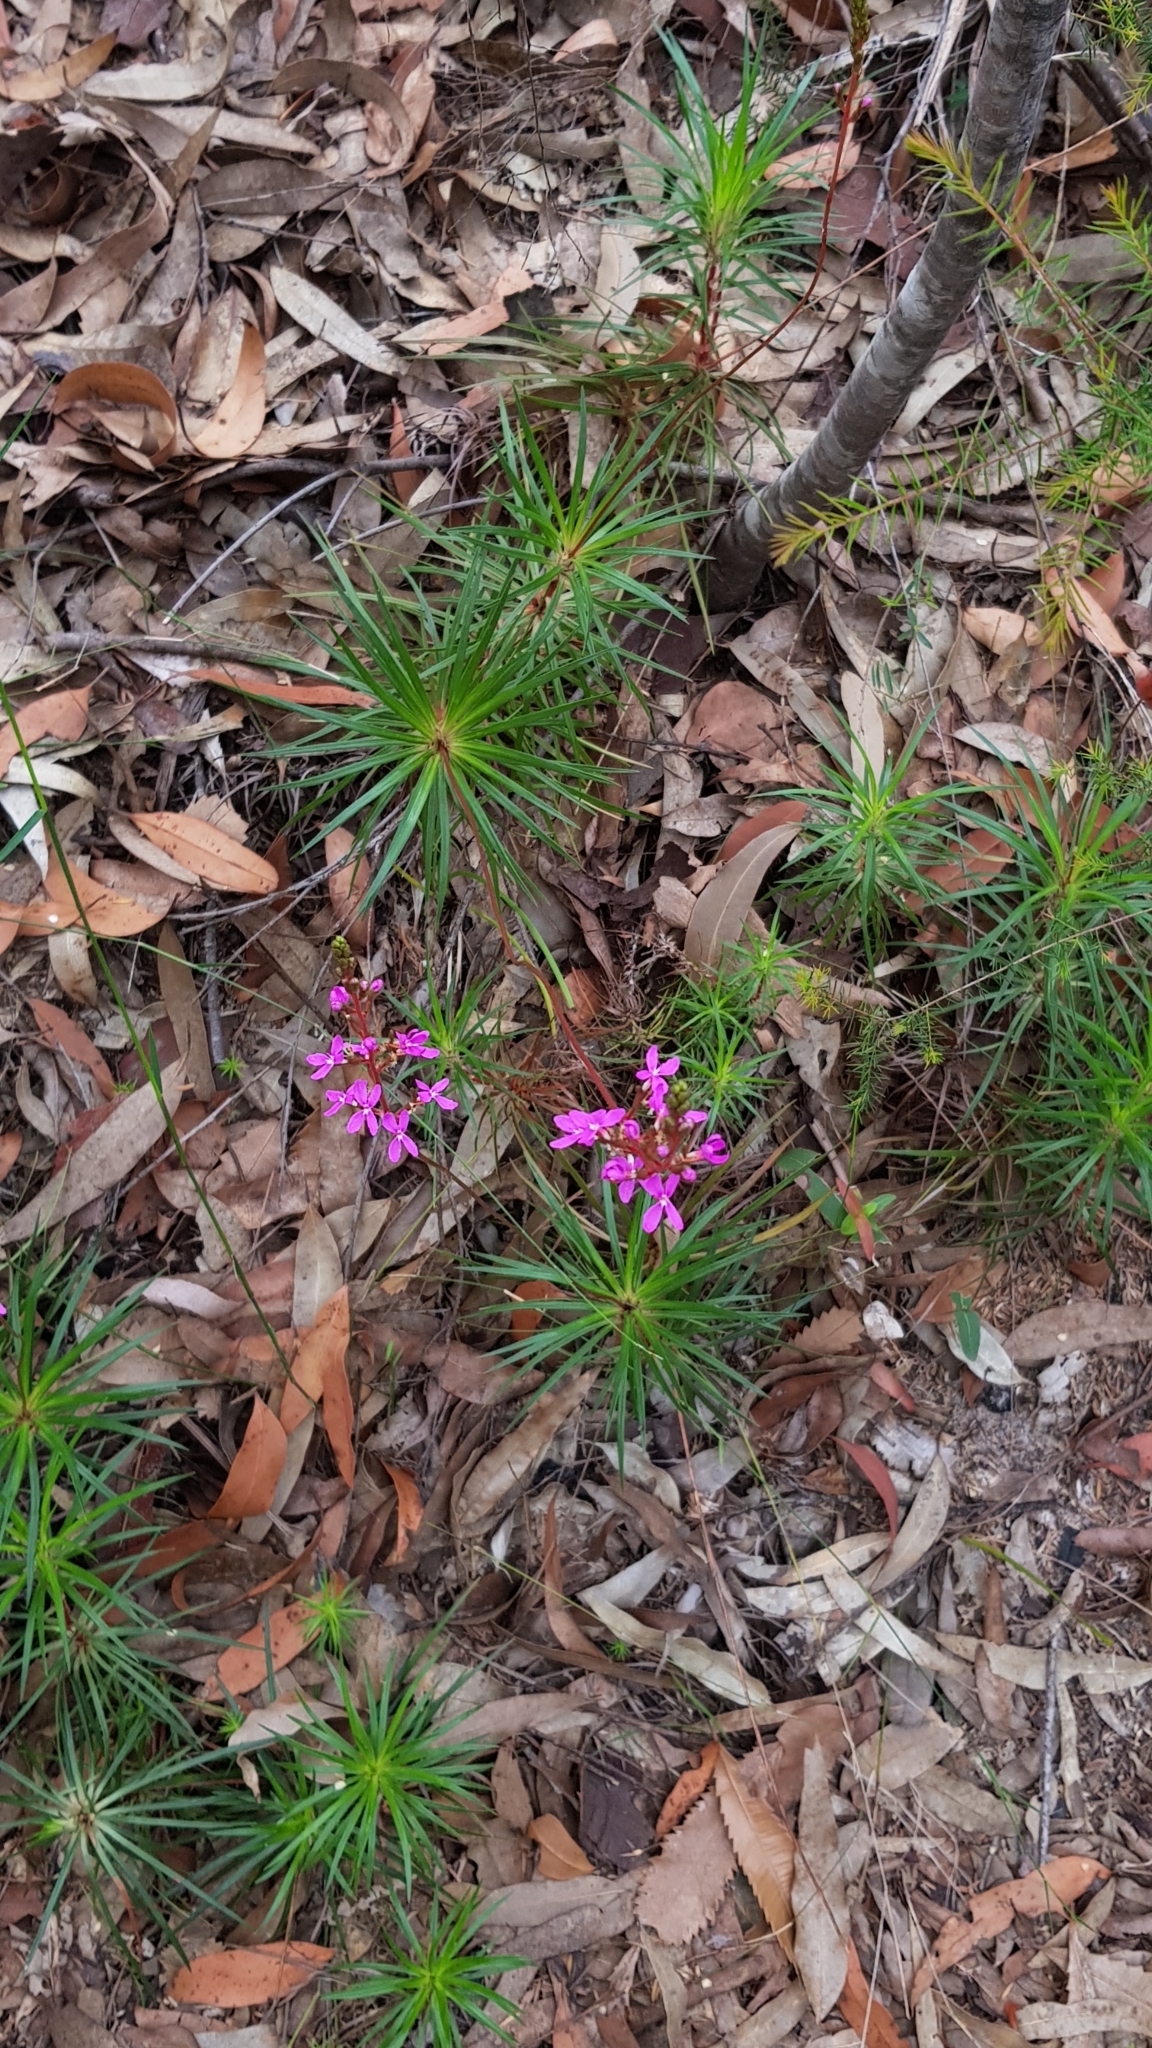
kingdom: Plantae
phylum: Tracheophyta
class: Magnoliopsida
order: Asterales
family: Stylidiaceae
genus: Stylidium
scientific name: Stylidium productum
